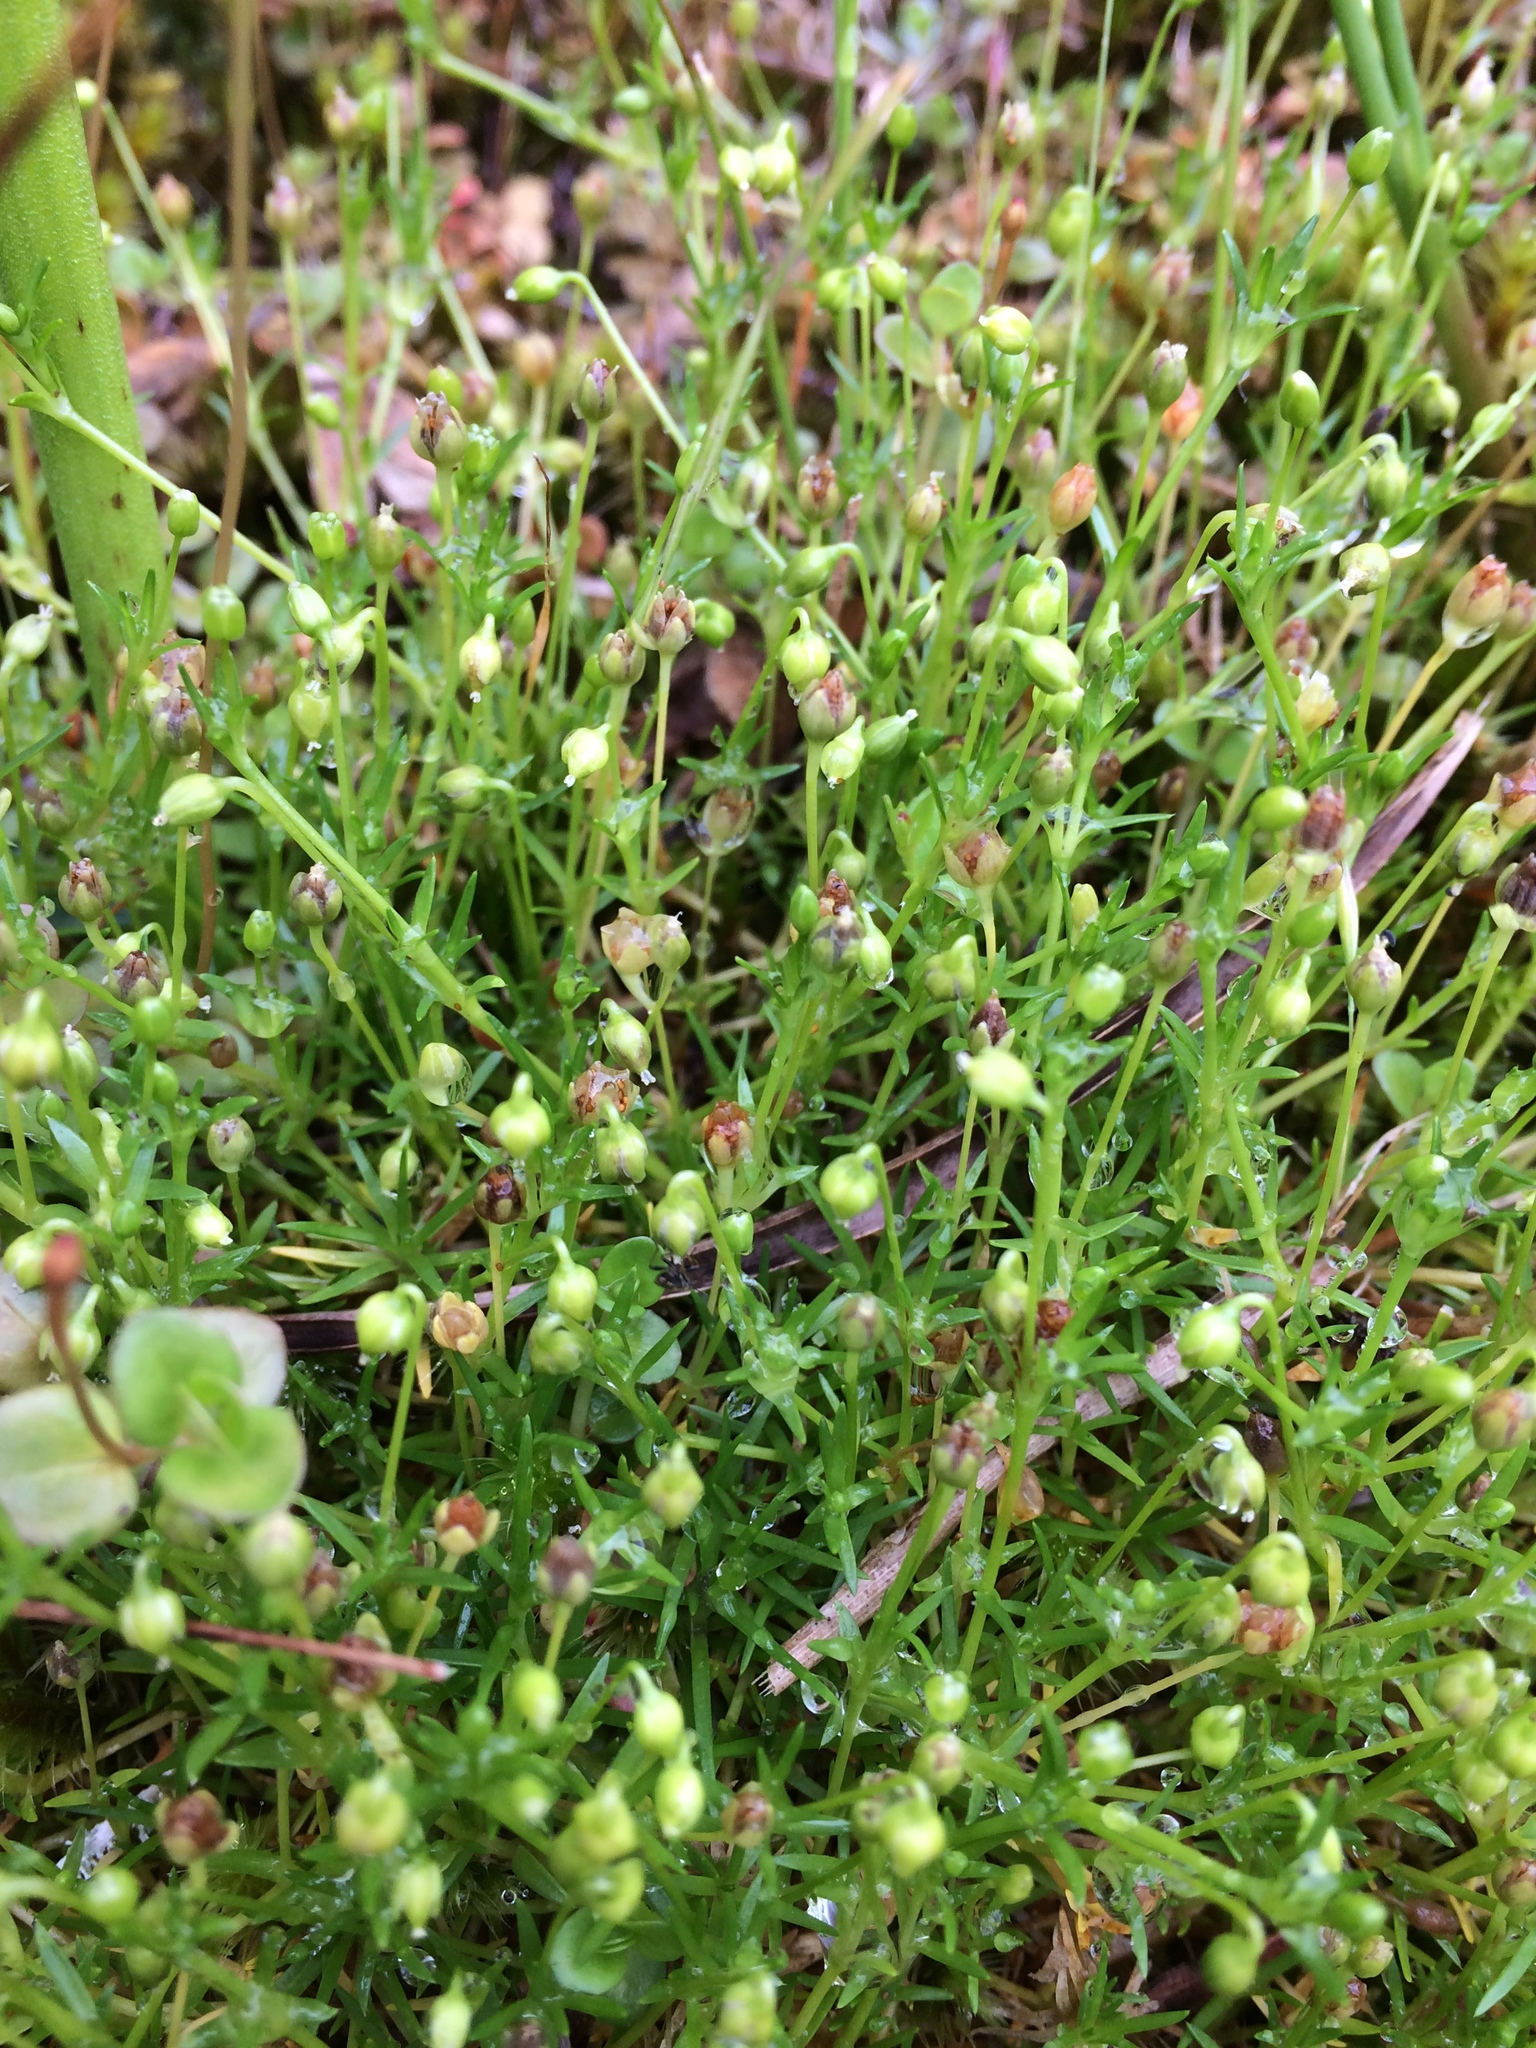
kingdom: Plantae
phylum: Tracheophyta
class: Magnoliopsida
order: Caryophyllales
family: Caryophyllaceae
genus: Sagina
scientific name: Sagina procumbens
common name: Procumbent pearlwort
